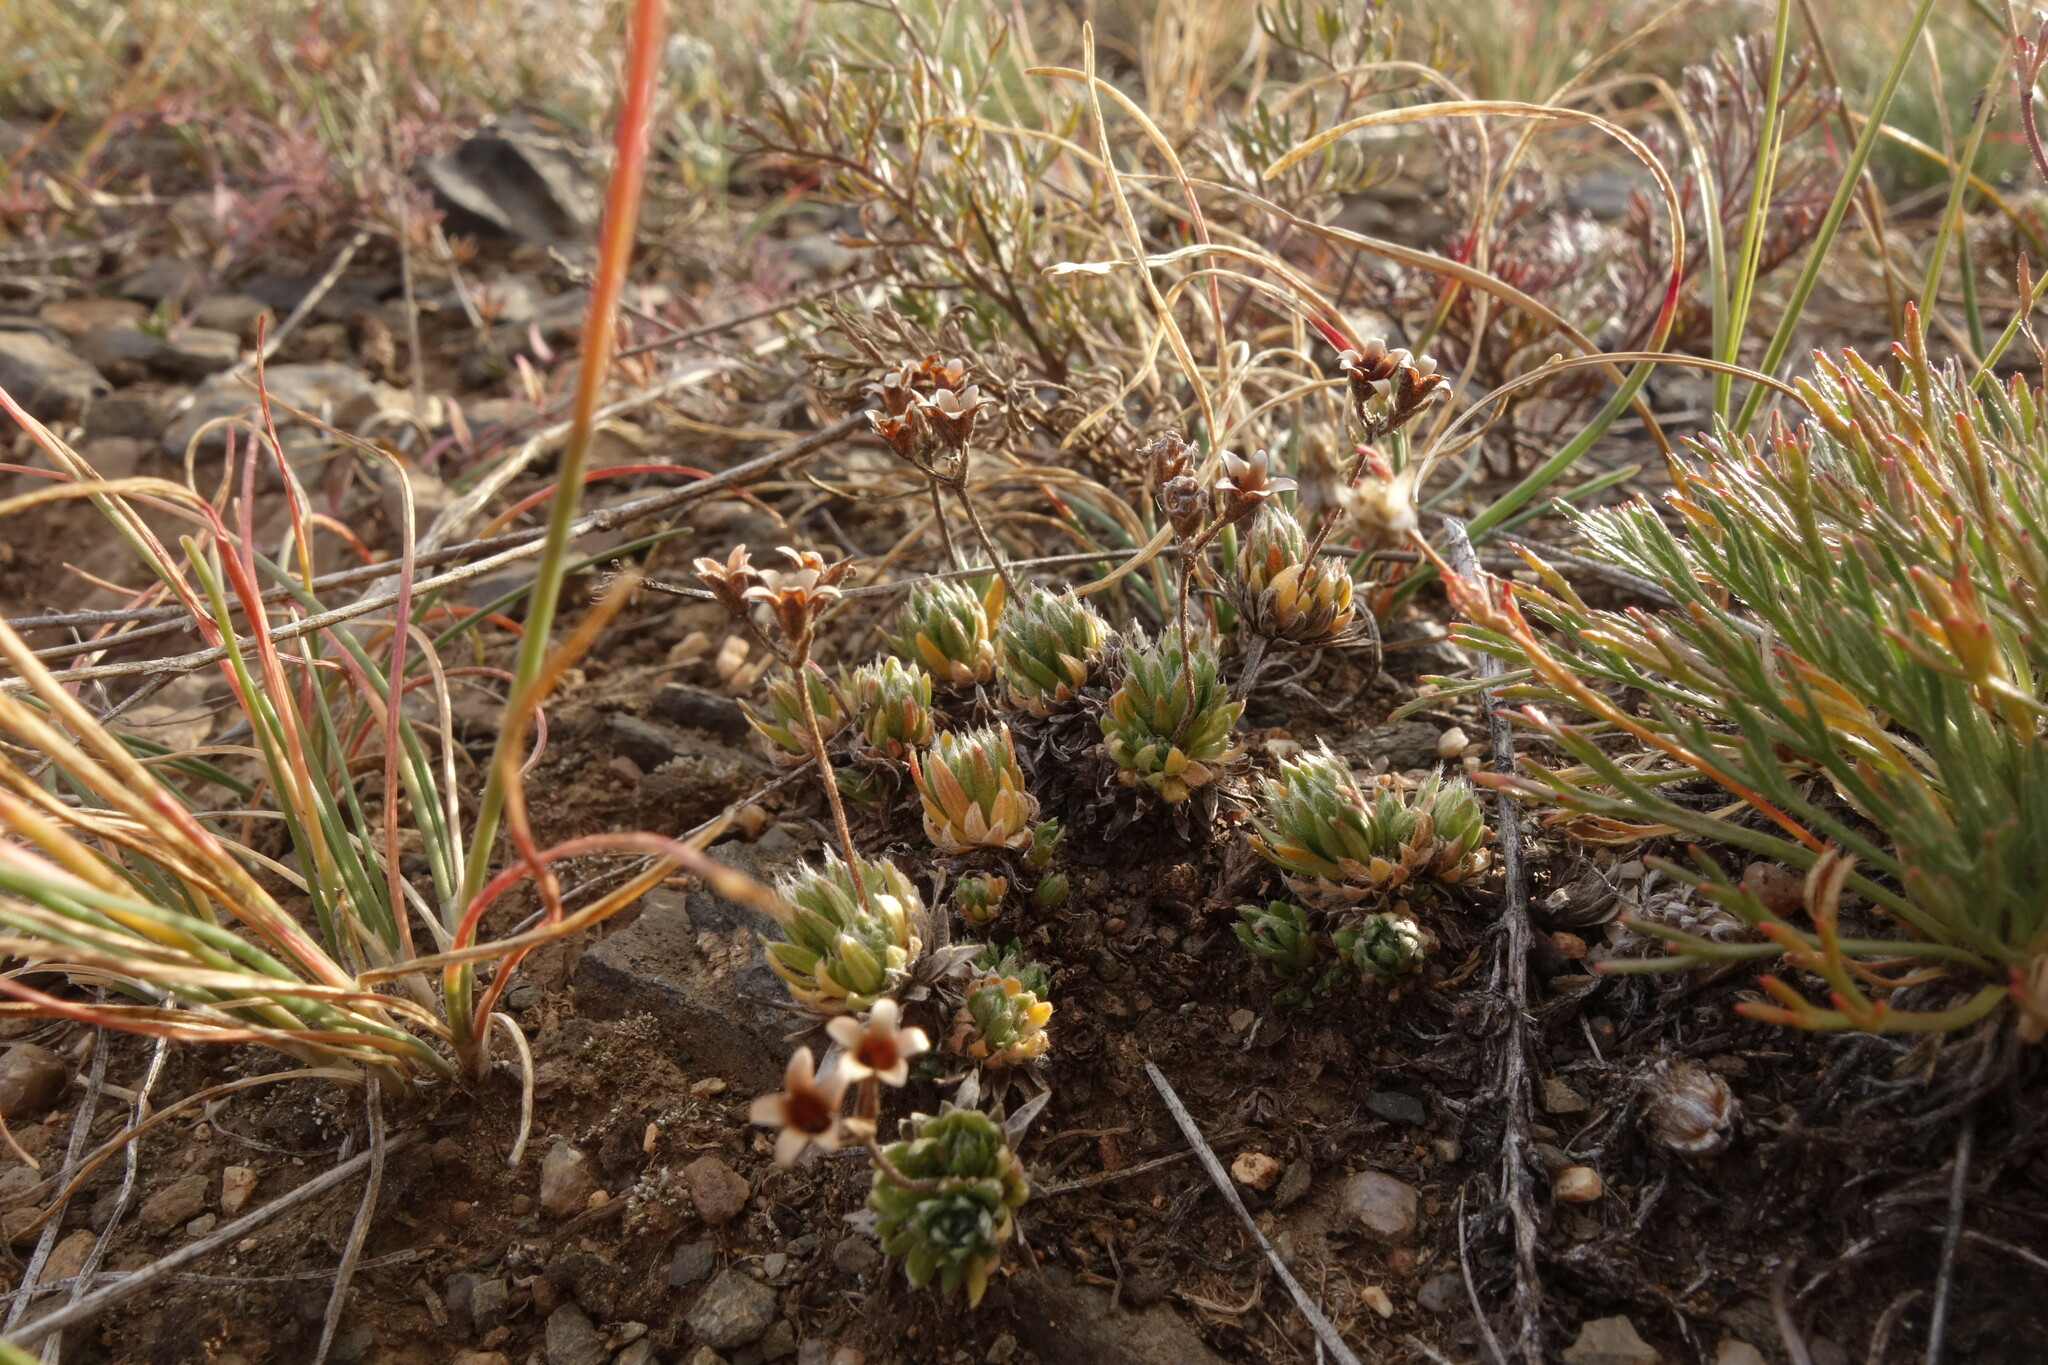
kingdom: Plantae
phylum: Tracheophyta
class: Magnoliopsida
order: Ericales
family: Primulaceae
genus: Androsace
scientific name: Androsace incana
